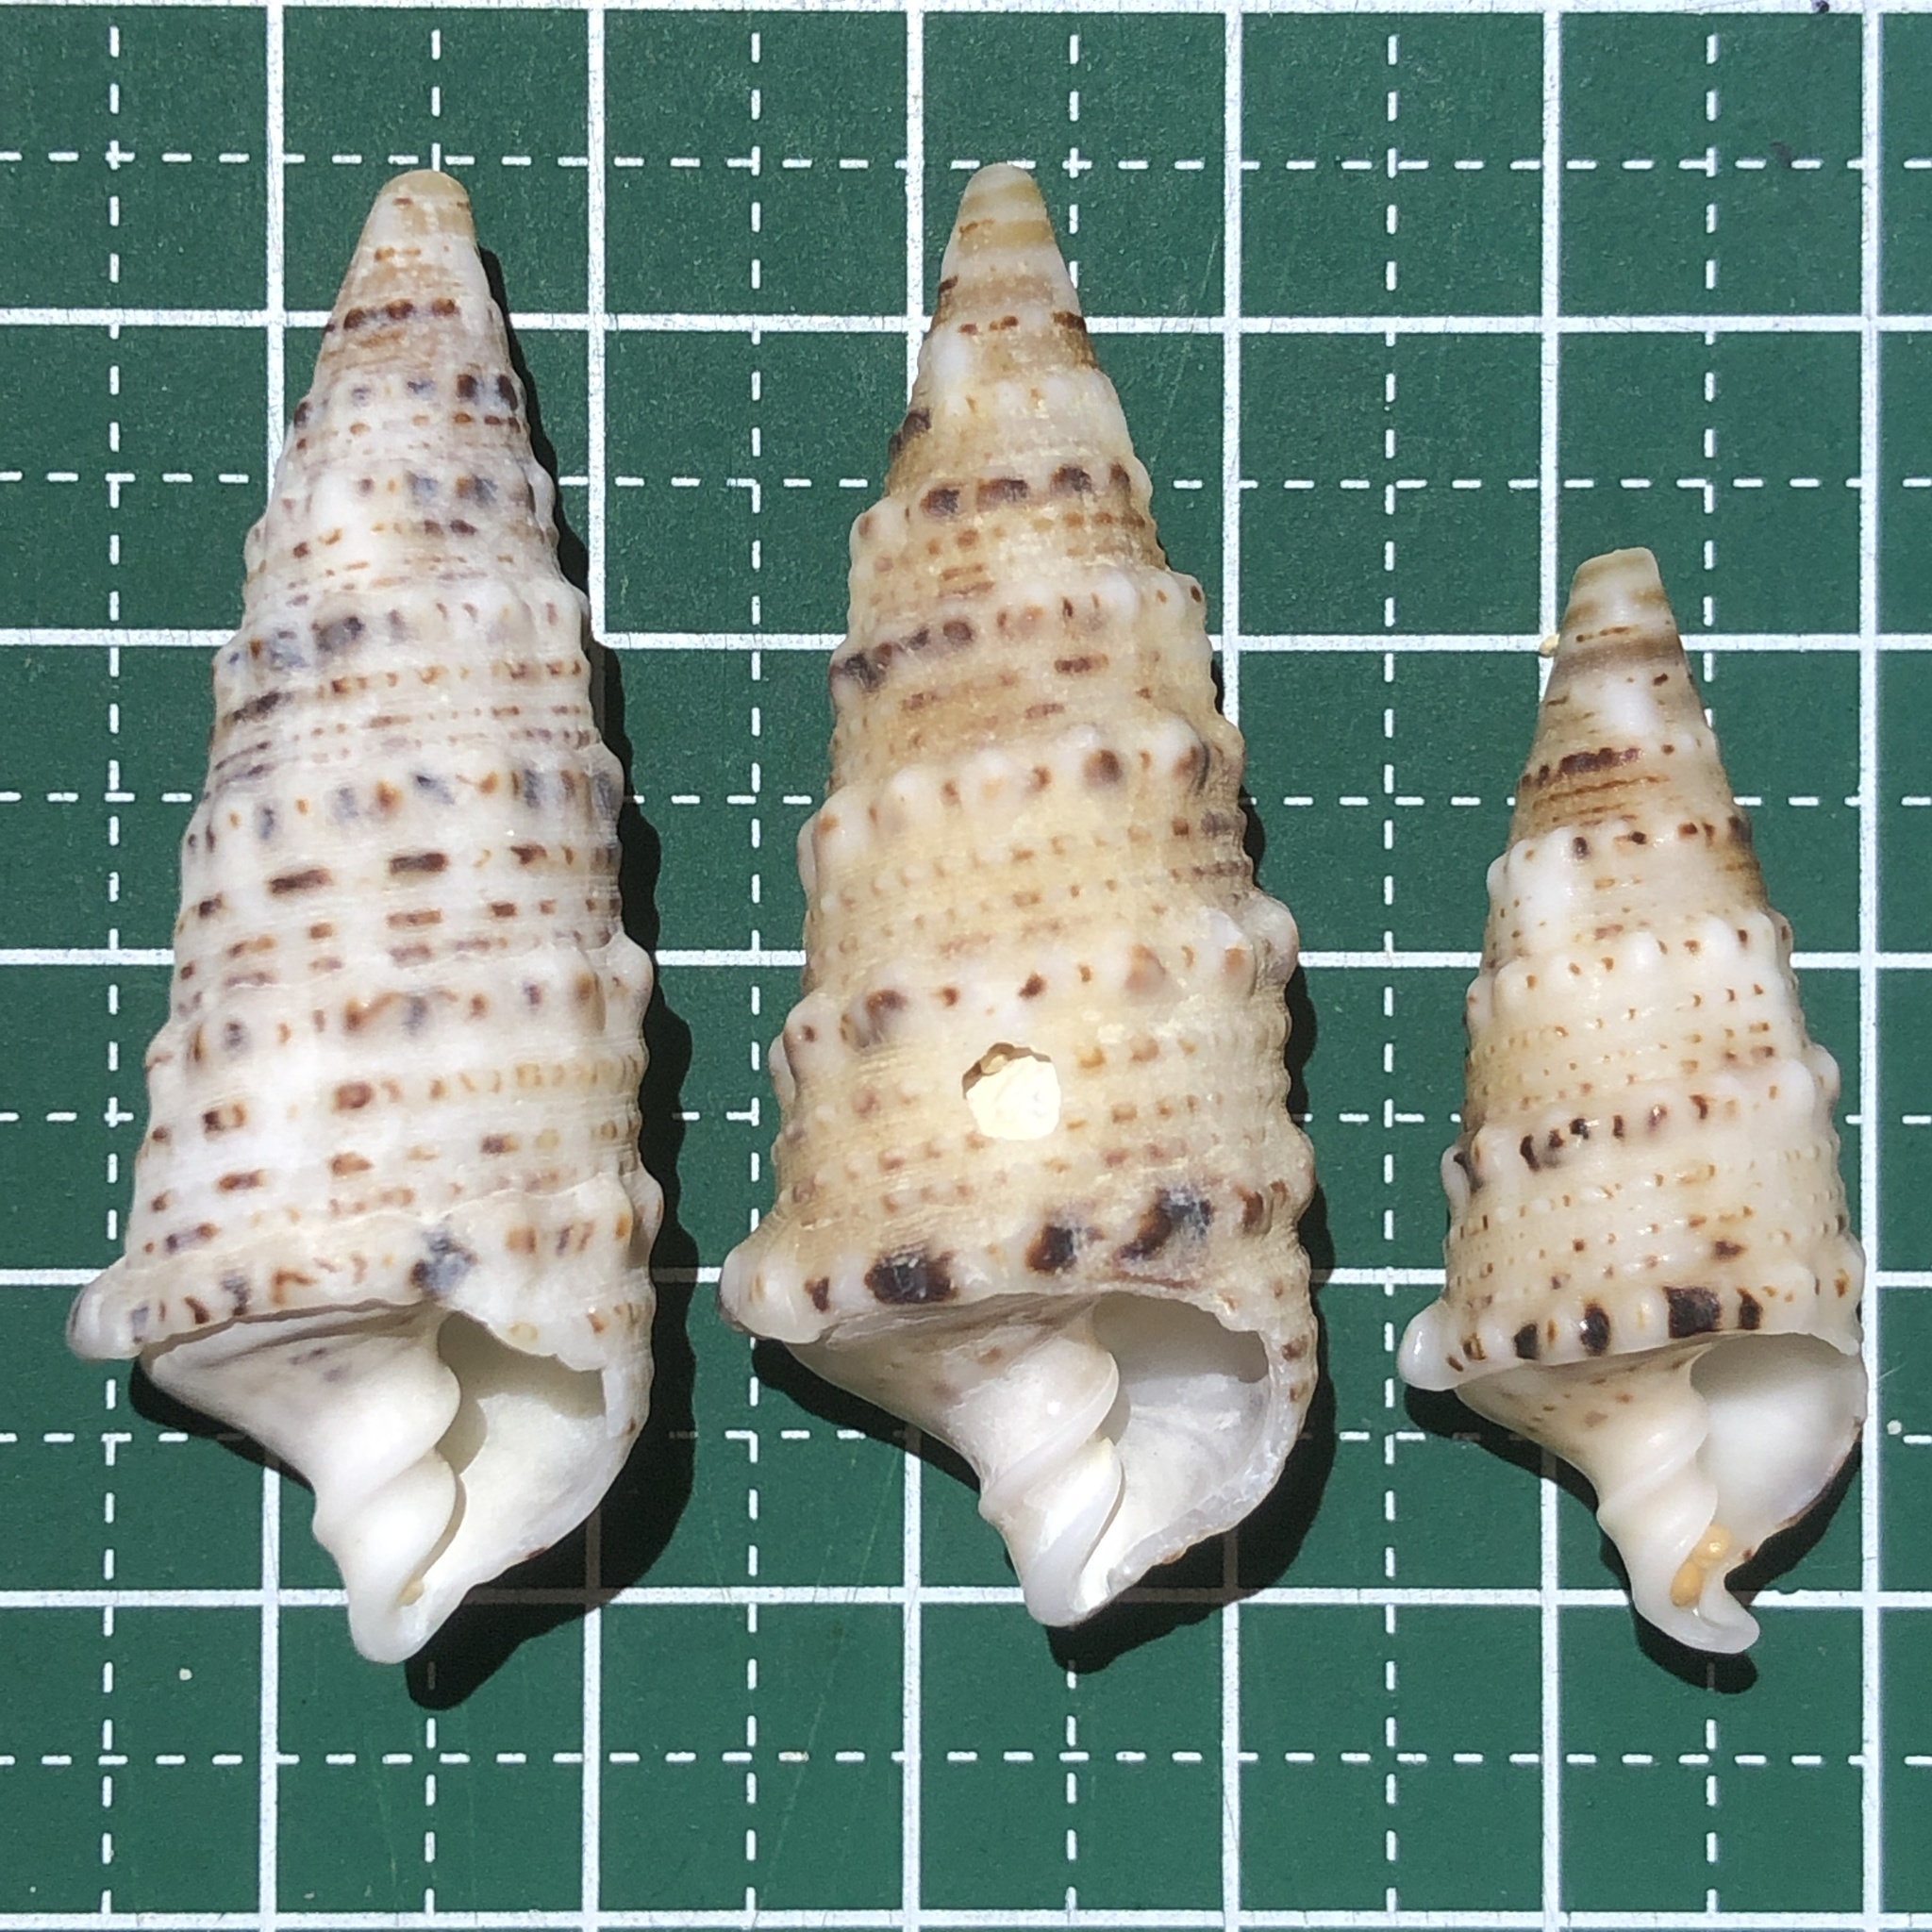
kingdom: Animalia
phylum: Mollusca
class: Gastropoda
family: Cerithiidae
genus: Rhinoclavis
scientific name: Rhinoclavis sinensis
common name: Knobbled horn shell
